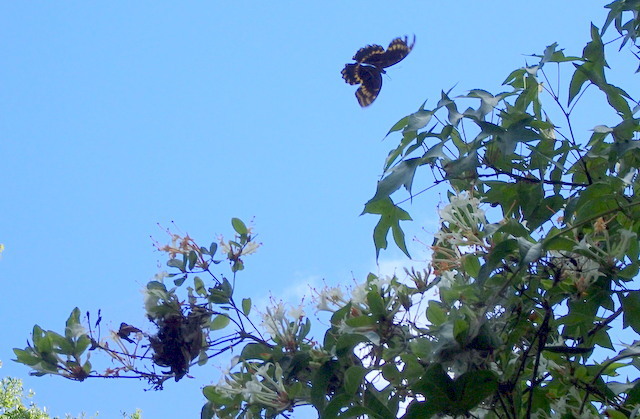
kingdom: Animalia
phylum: Arthropoda
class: Insecta
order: Lepidoptera
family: Papilionidae
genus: Papilio
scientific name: Papilio palamedes
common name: Palamedes swallowtail
